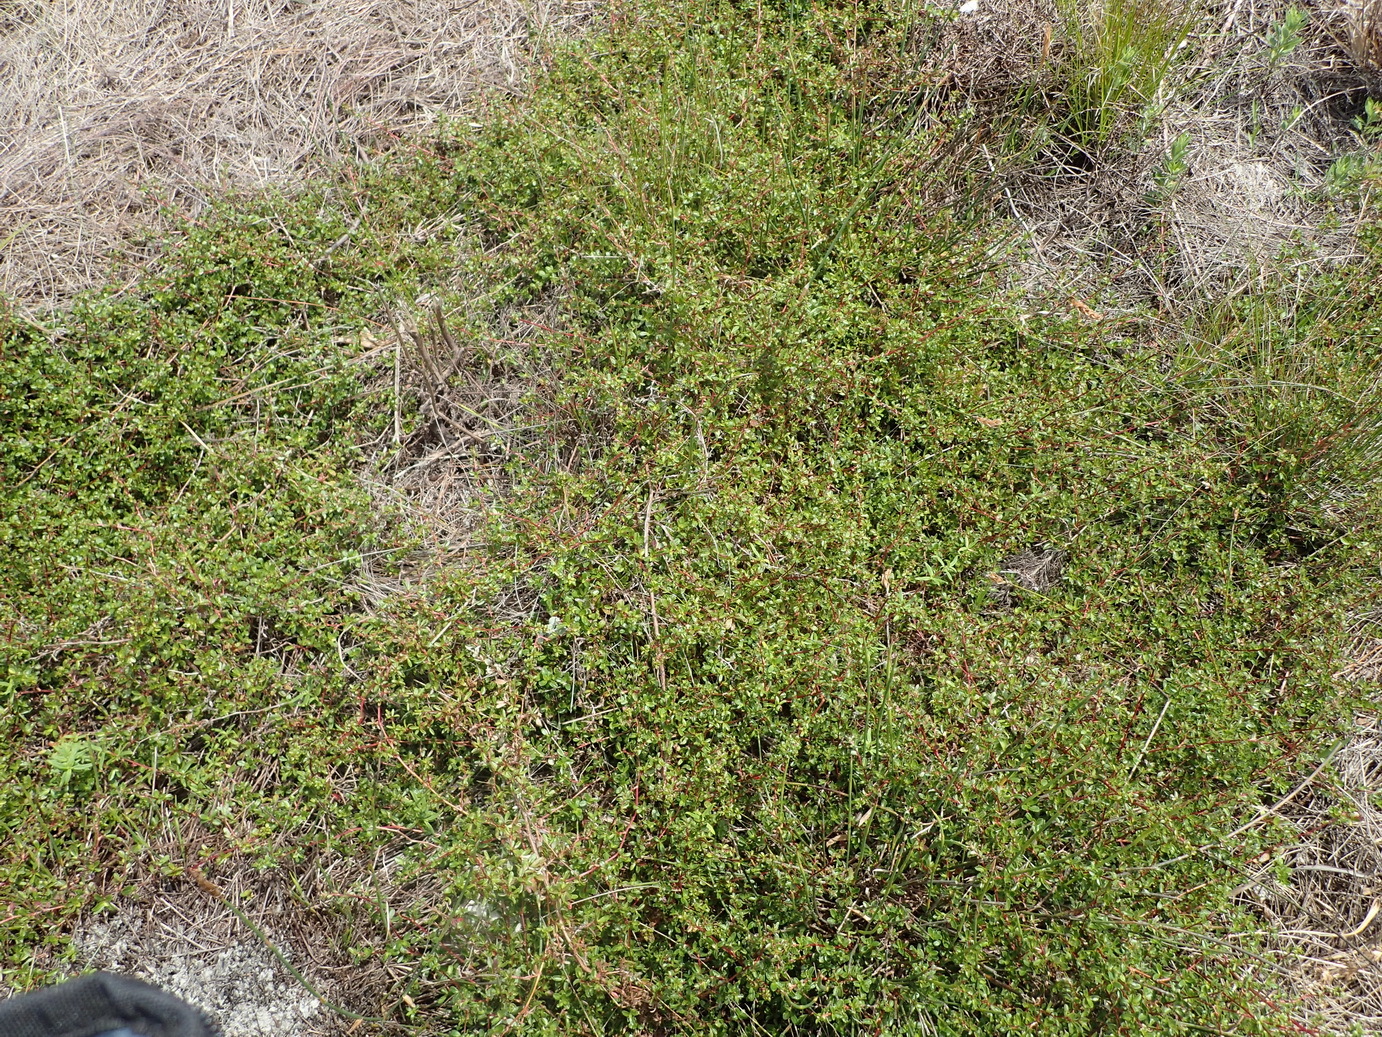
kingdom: Plantae
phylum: Tracheophyta
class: Magnoliopsida
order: Rosales
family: Rosaceae
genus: Cliffortia
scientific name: Cliffortia ferruginea
